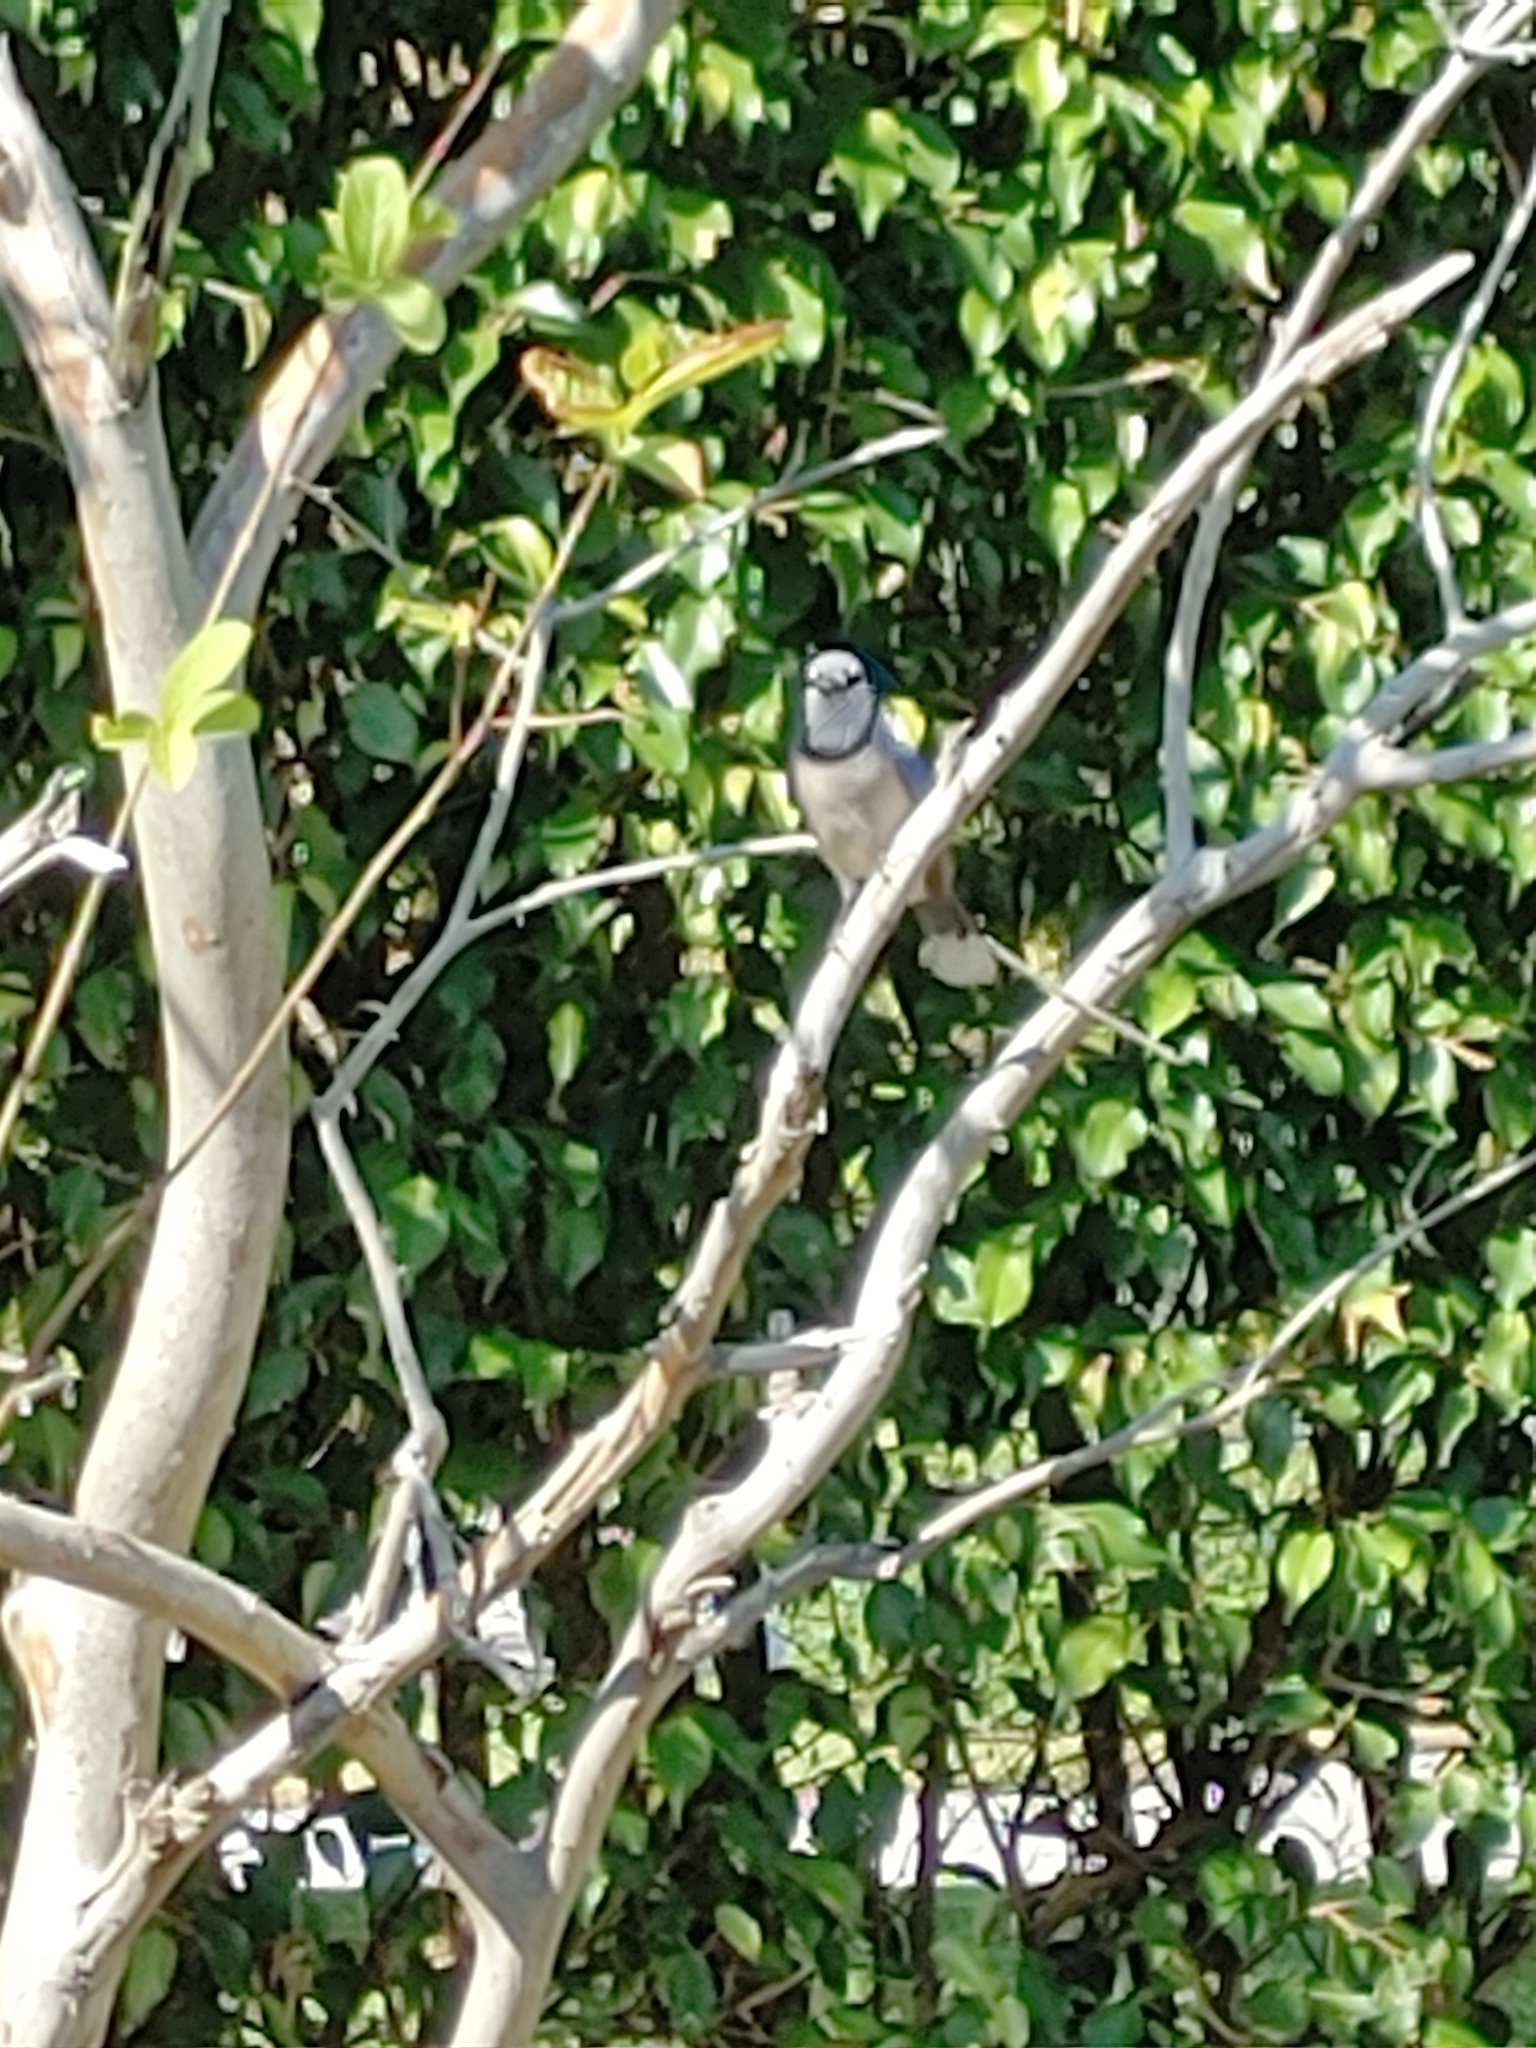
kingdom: Animalia
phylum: Chordata
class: Aves
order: Passeriformes
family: Corvidae
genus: Cyanocitta
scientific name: Cyanocitta cristata
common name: Blue jay
